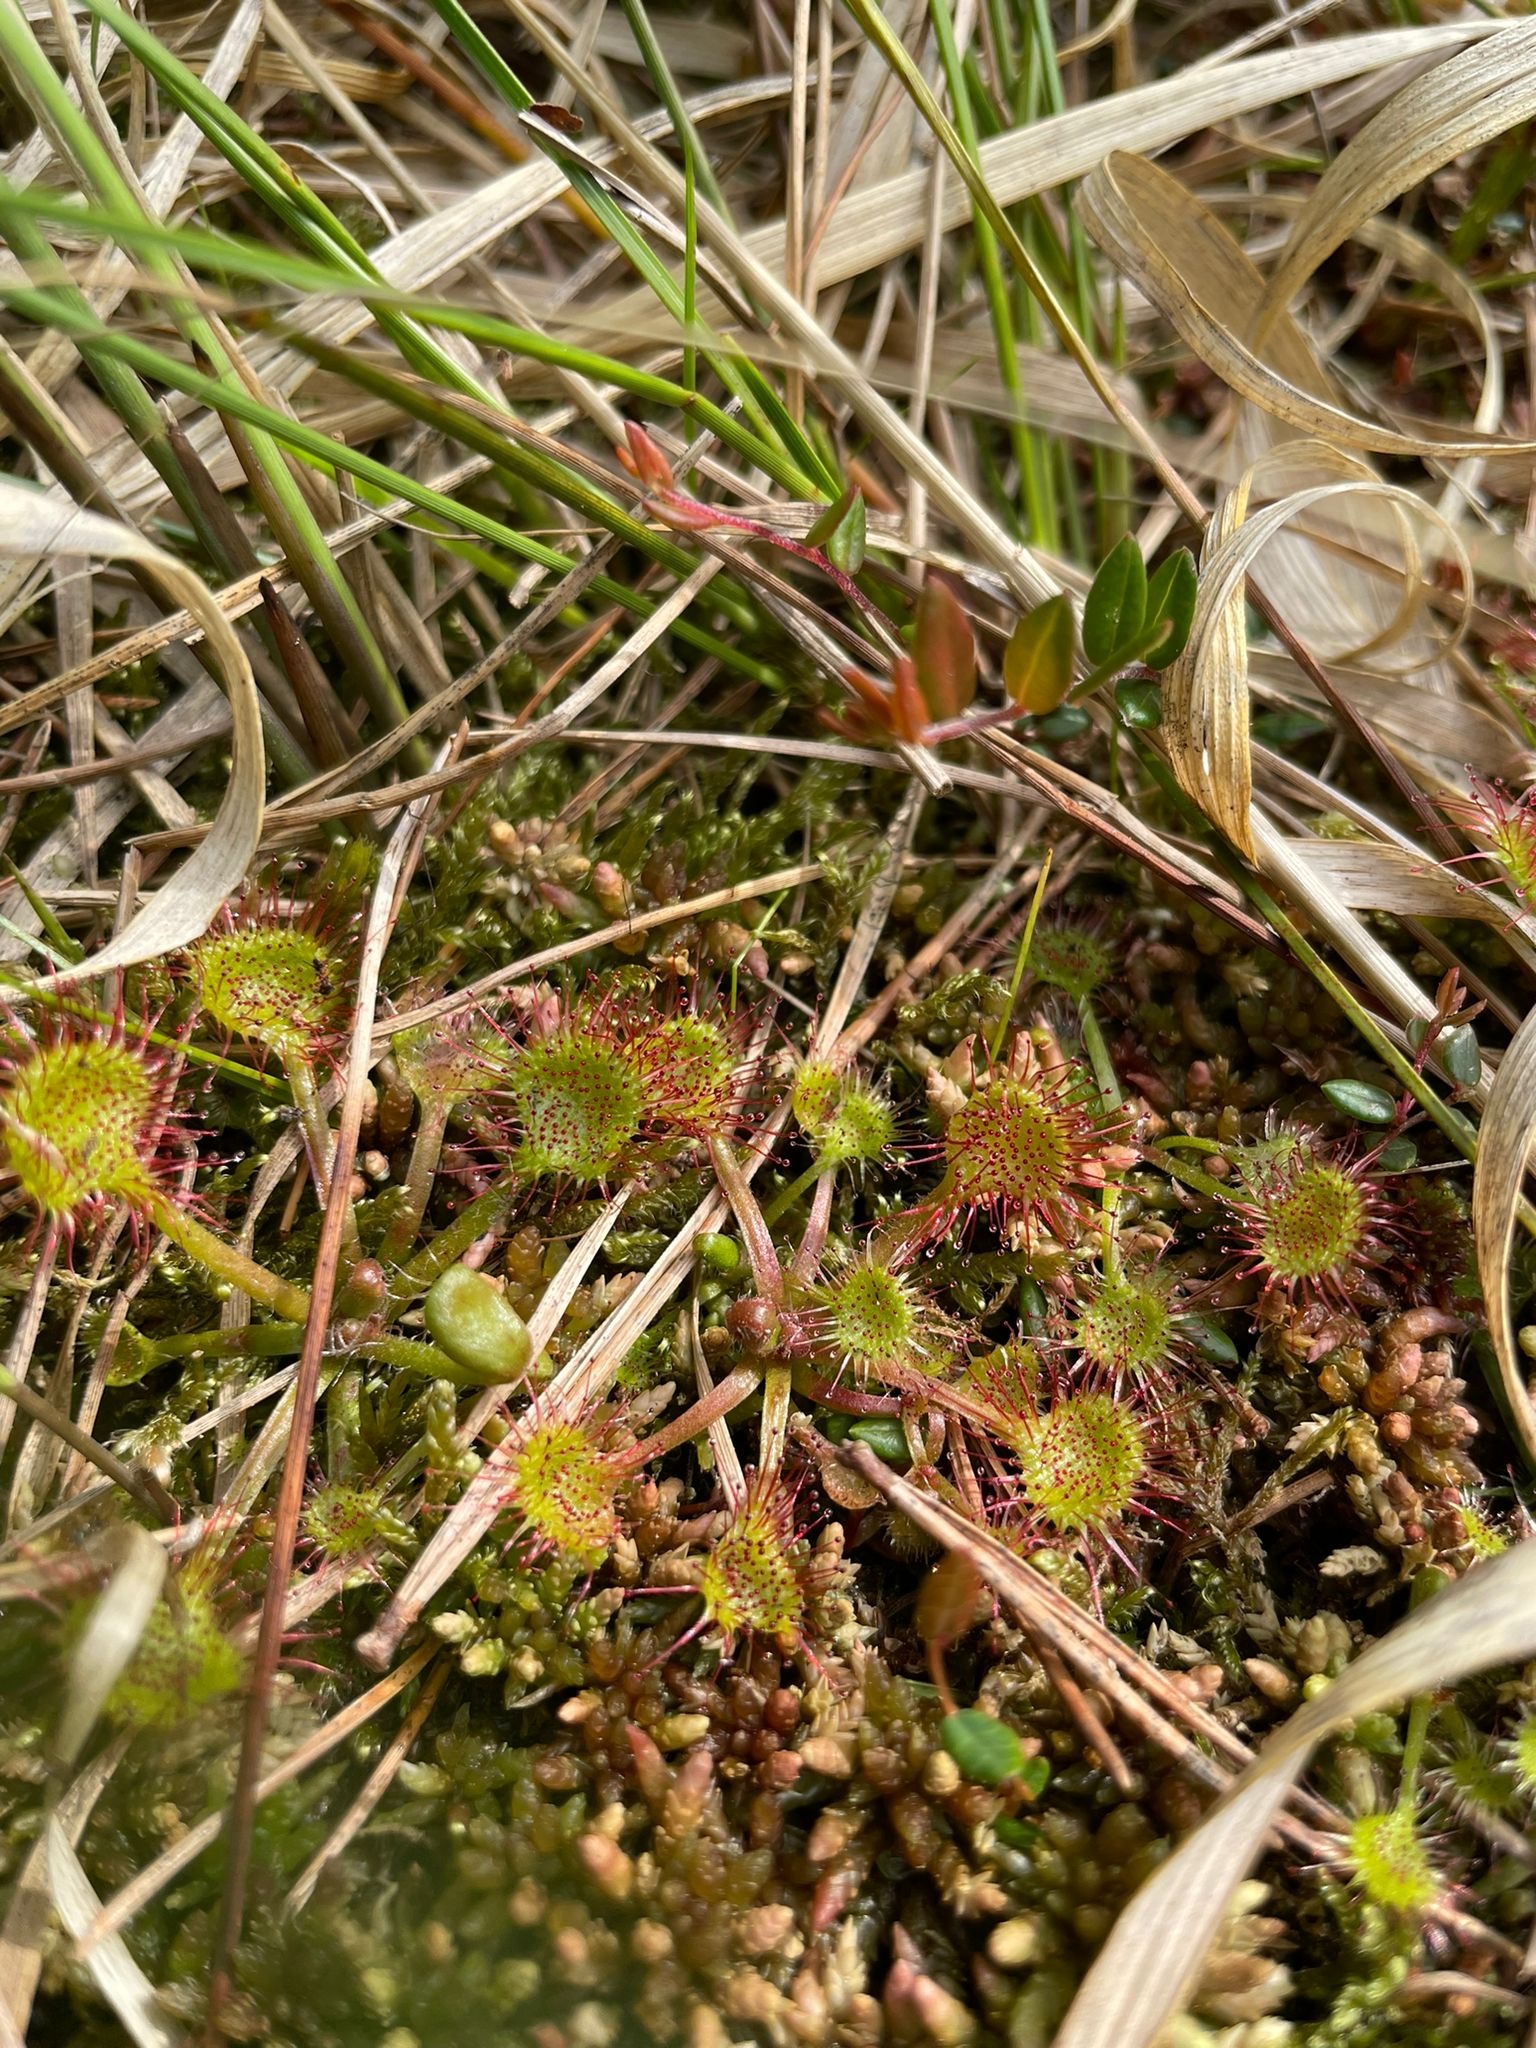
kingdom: Plantae
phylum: Tracheophyta
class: Magnoliopsida
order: Caryophyllales
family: Droseraceae
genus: Drosera
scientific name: Drosera rotundifolia
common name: Round-leaved sundew
